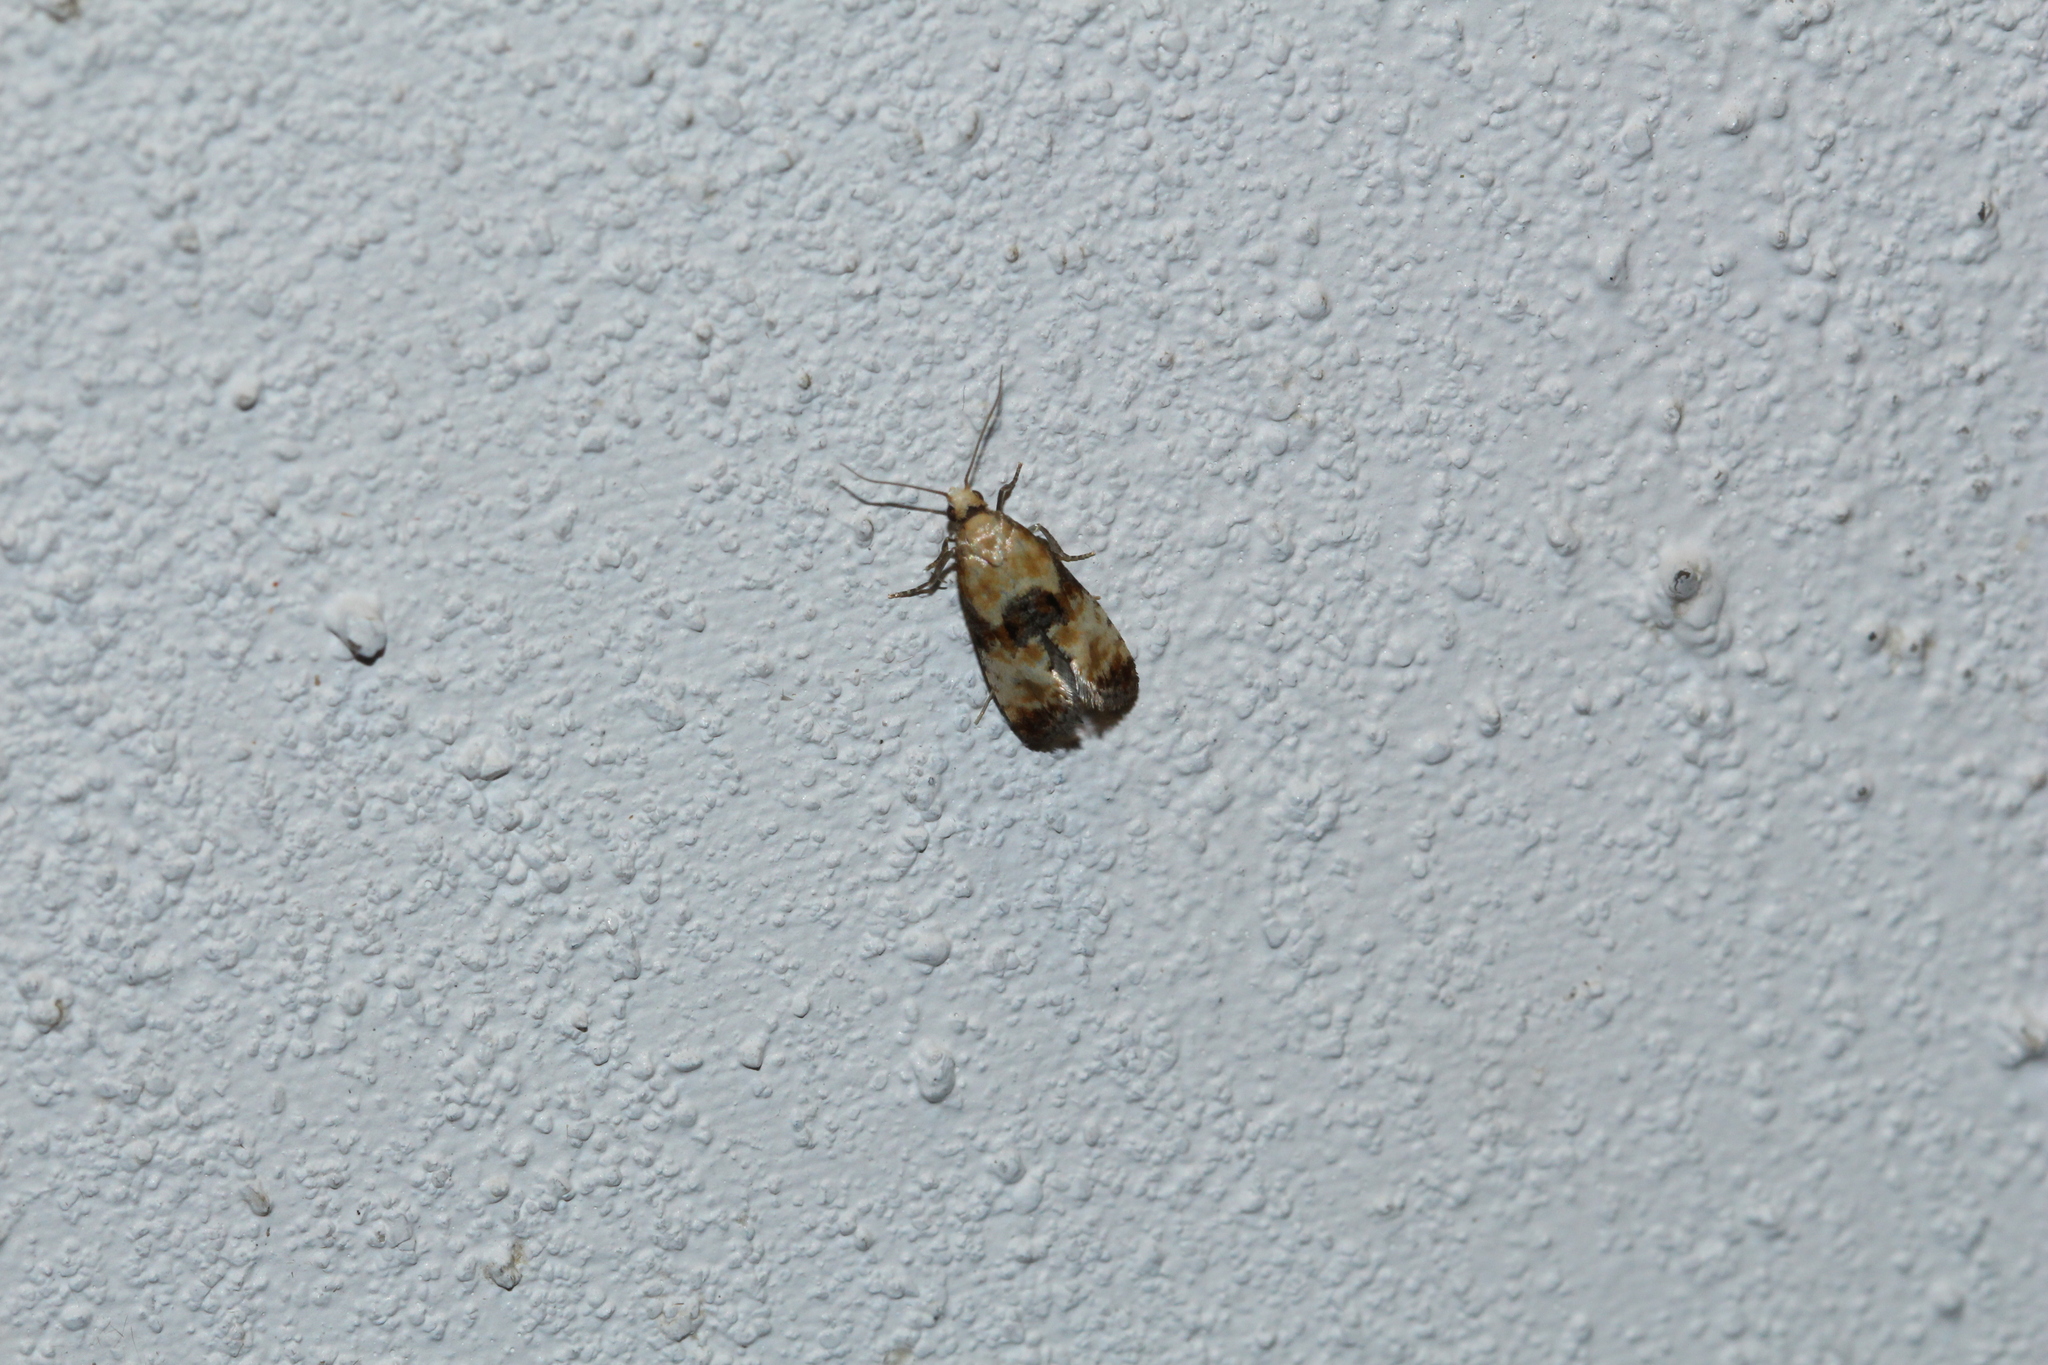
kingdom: Animalia
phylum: Arthropoda
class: Insecta
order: Lepidoptera
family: Tortricidae
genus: Eupoecilia
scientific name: Eupoecilia angustana
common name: Marbled conch
